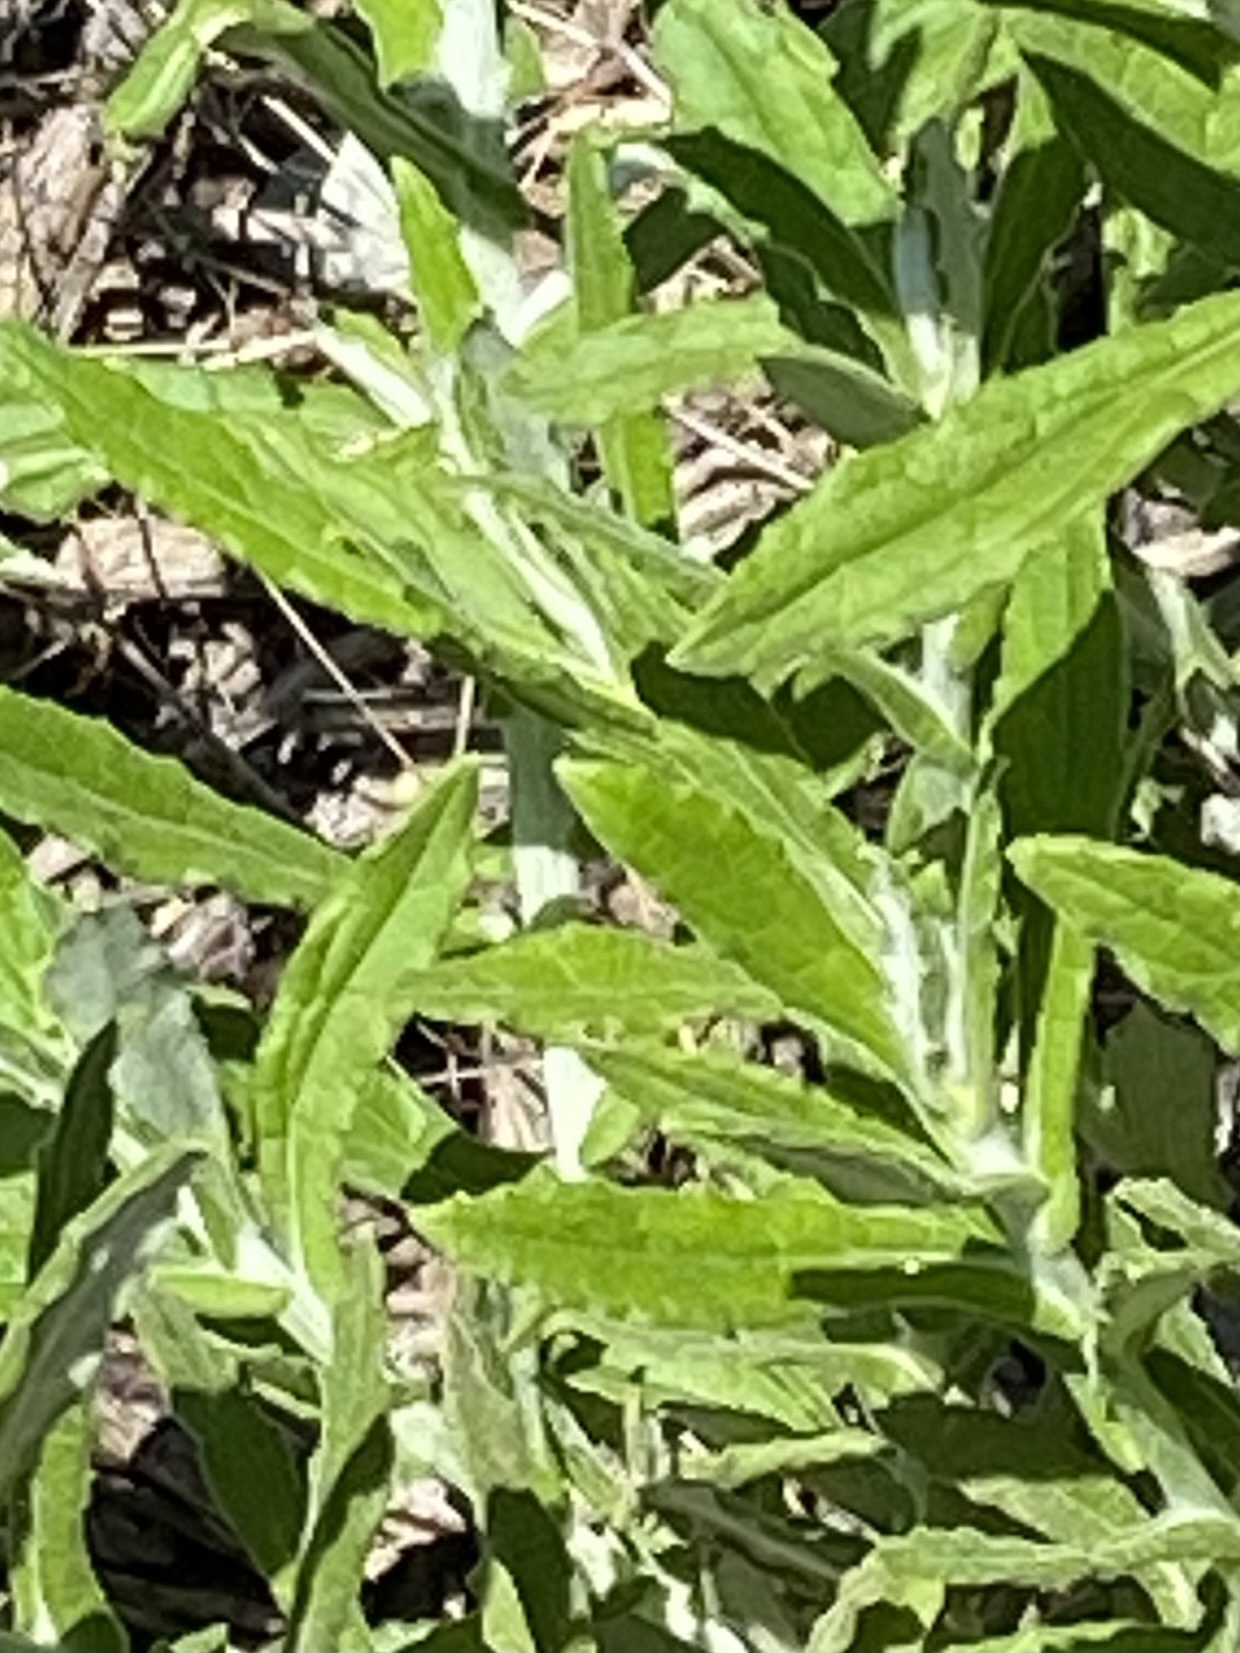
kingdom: Plantae
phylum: Tracheophyta
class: Magnoliopsida
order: Asterales
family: Asteraceae
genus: Pseudognaphalium
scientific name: Pseudognaphalium biolettii
